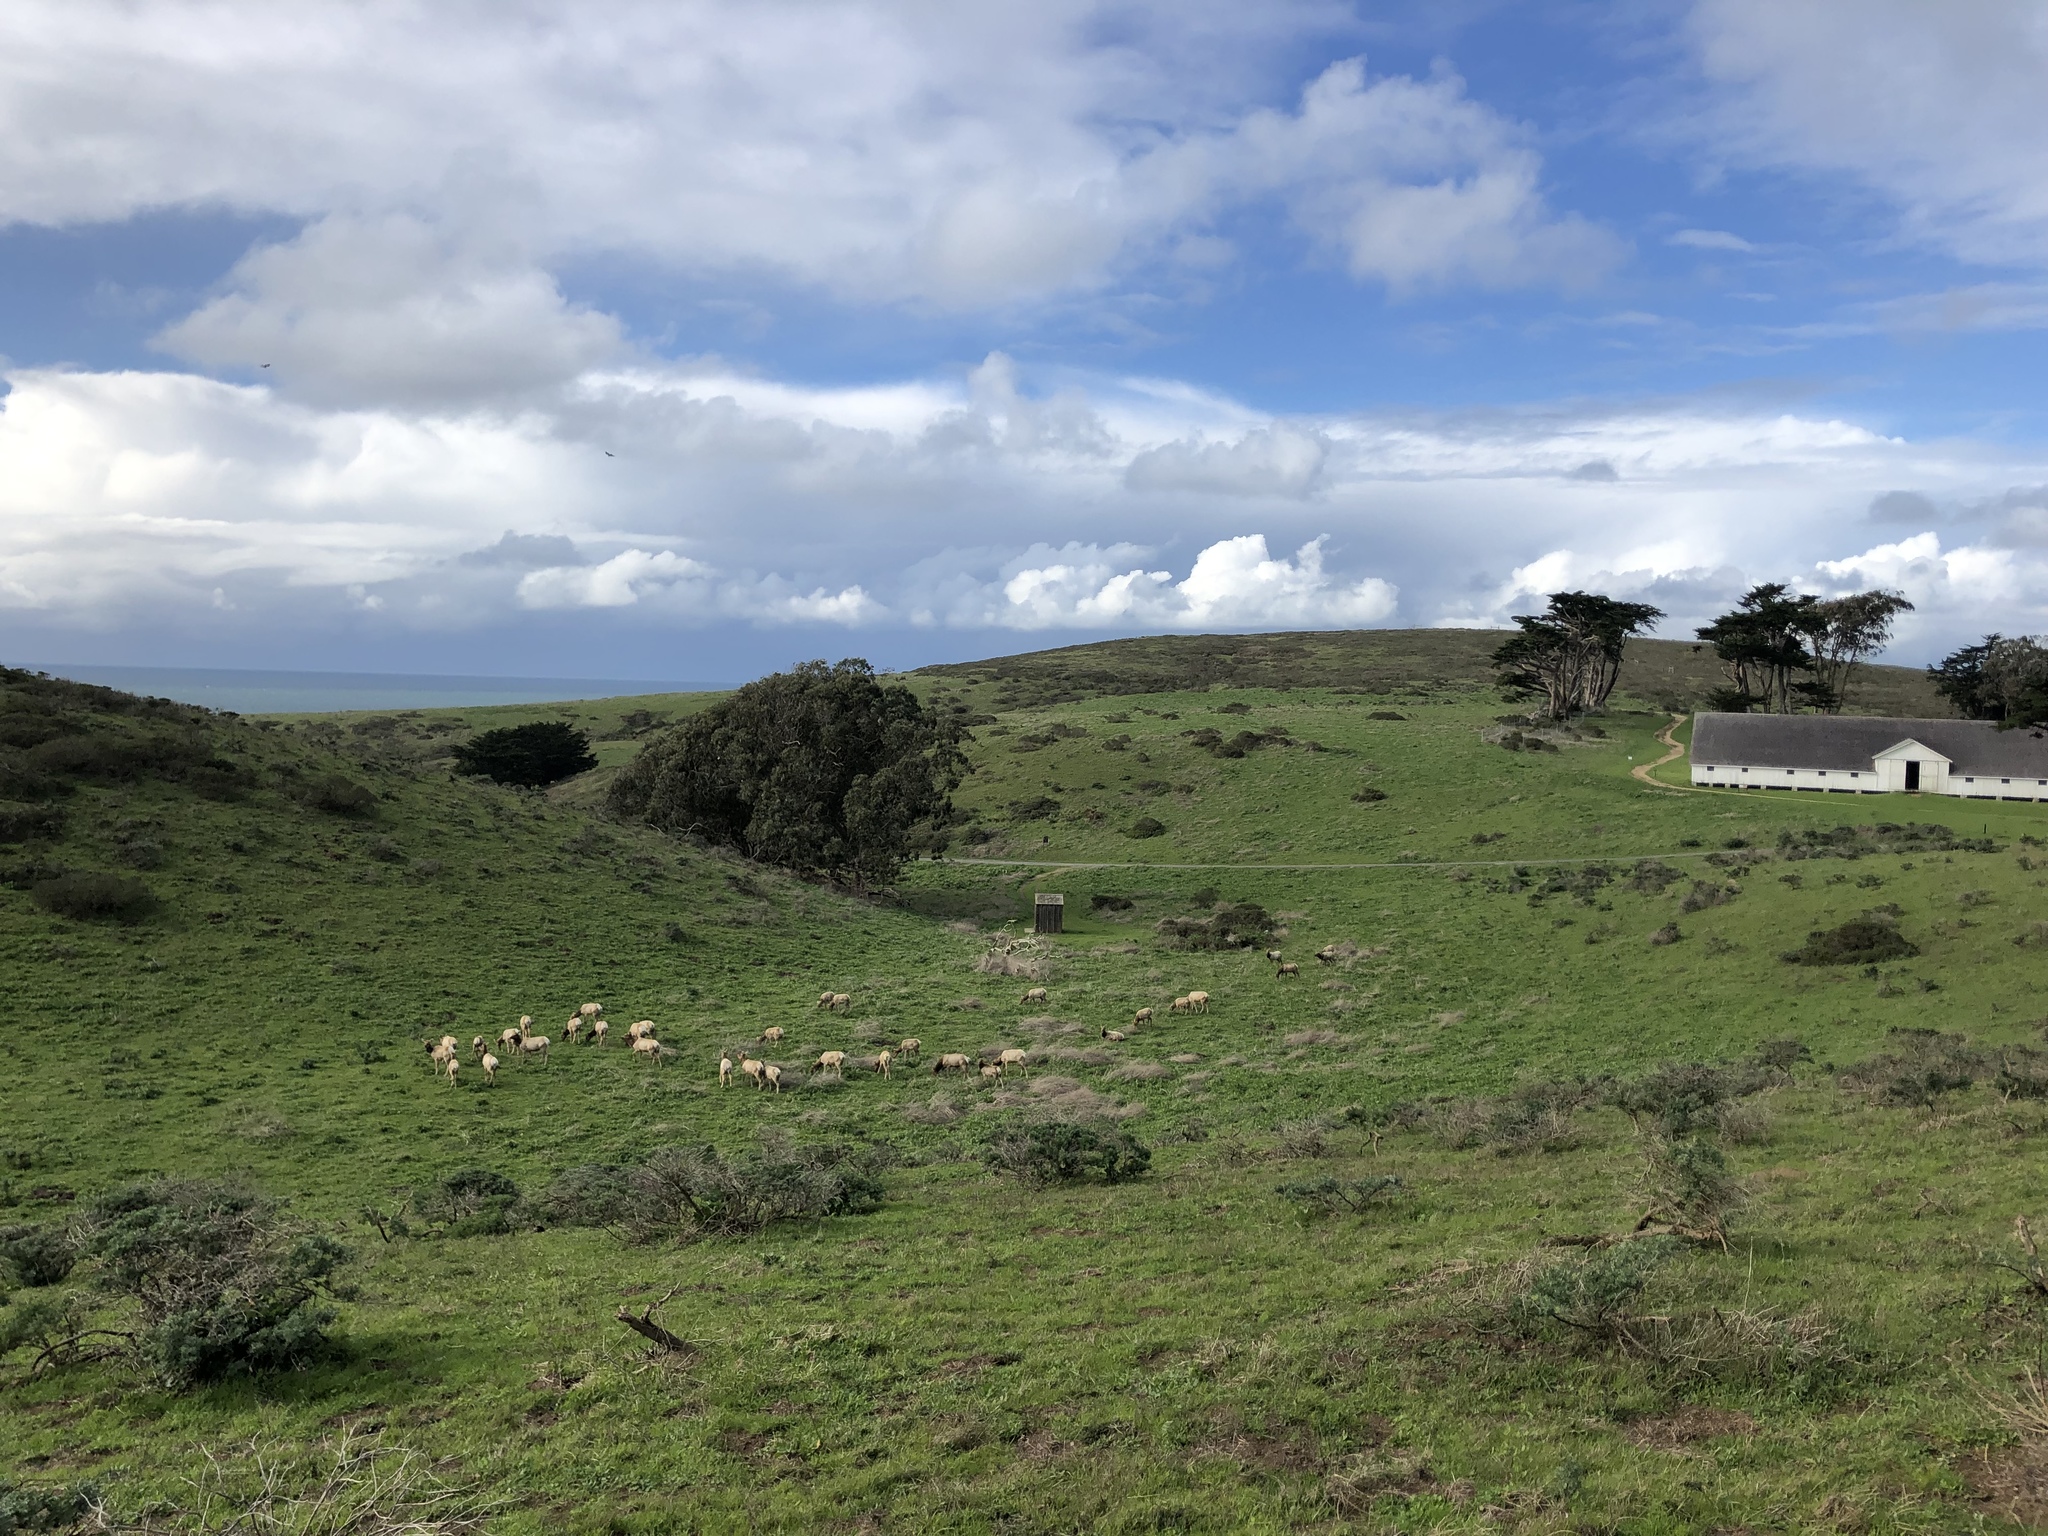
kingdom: Animalia
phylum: Chordata
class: Mammalia
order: Artiodactyla
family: Cervidae
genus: Cervus
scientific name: Cervus elaphus
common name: Red deer
